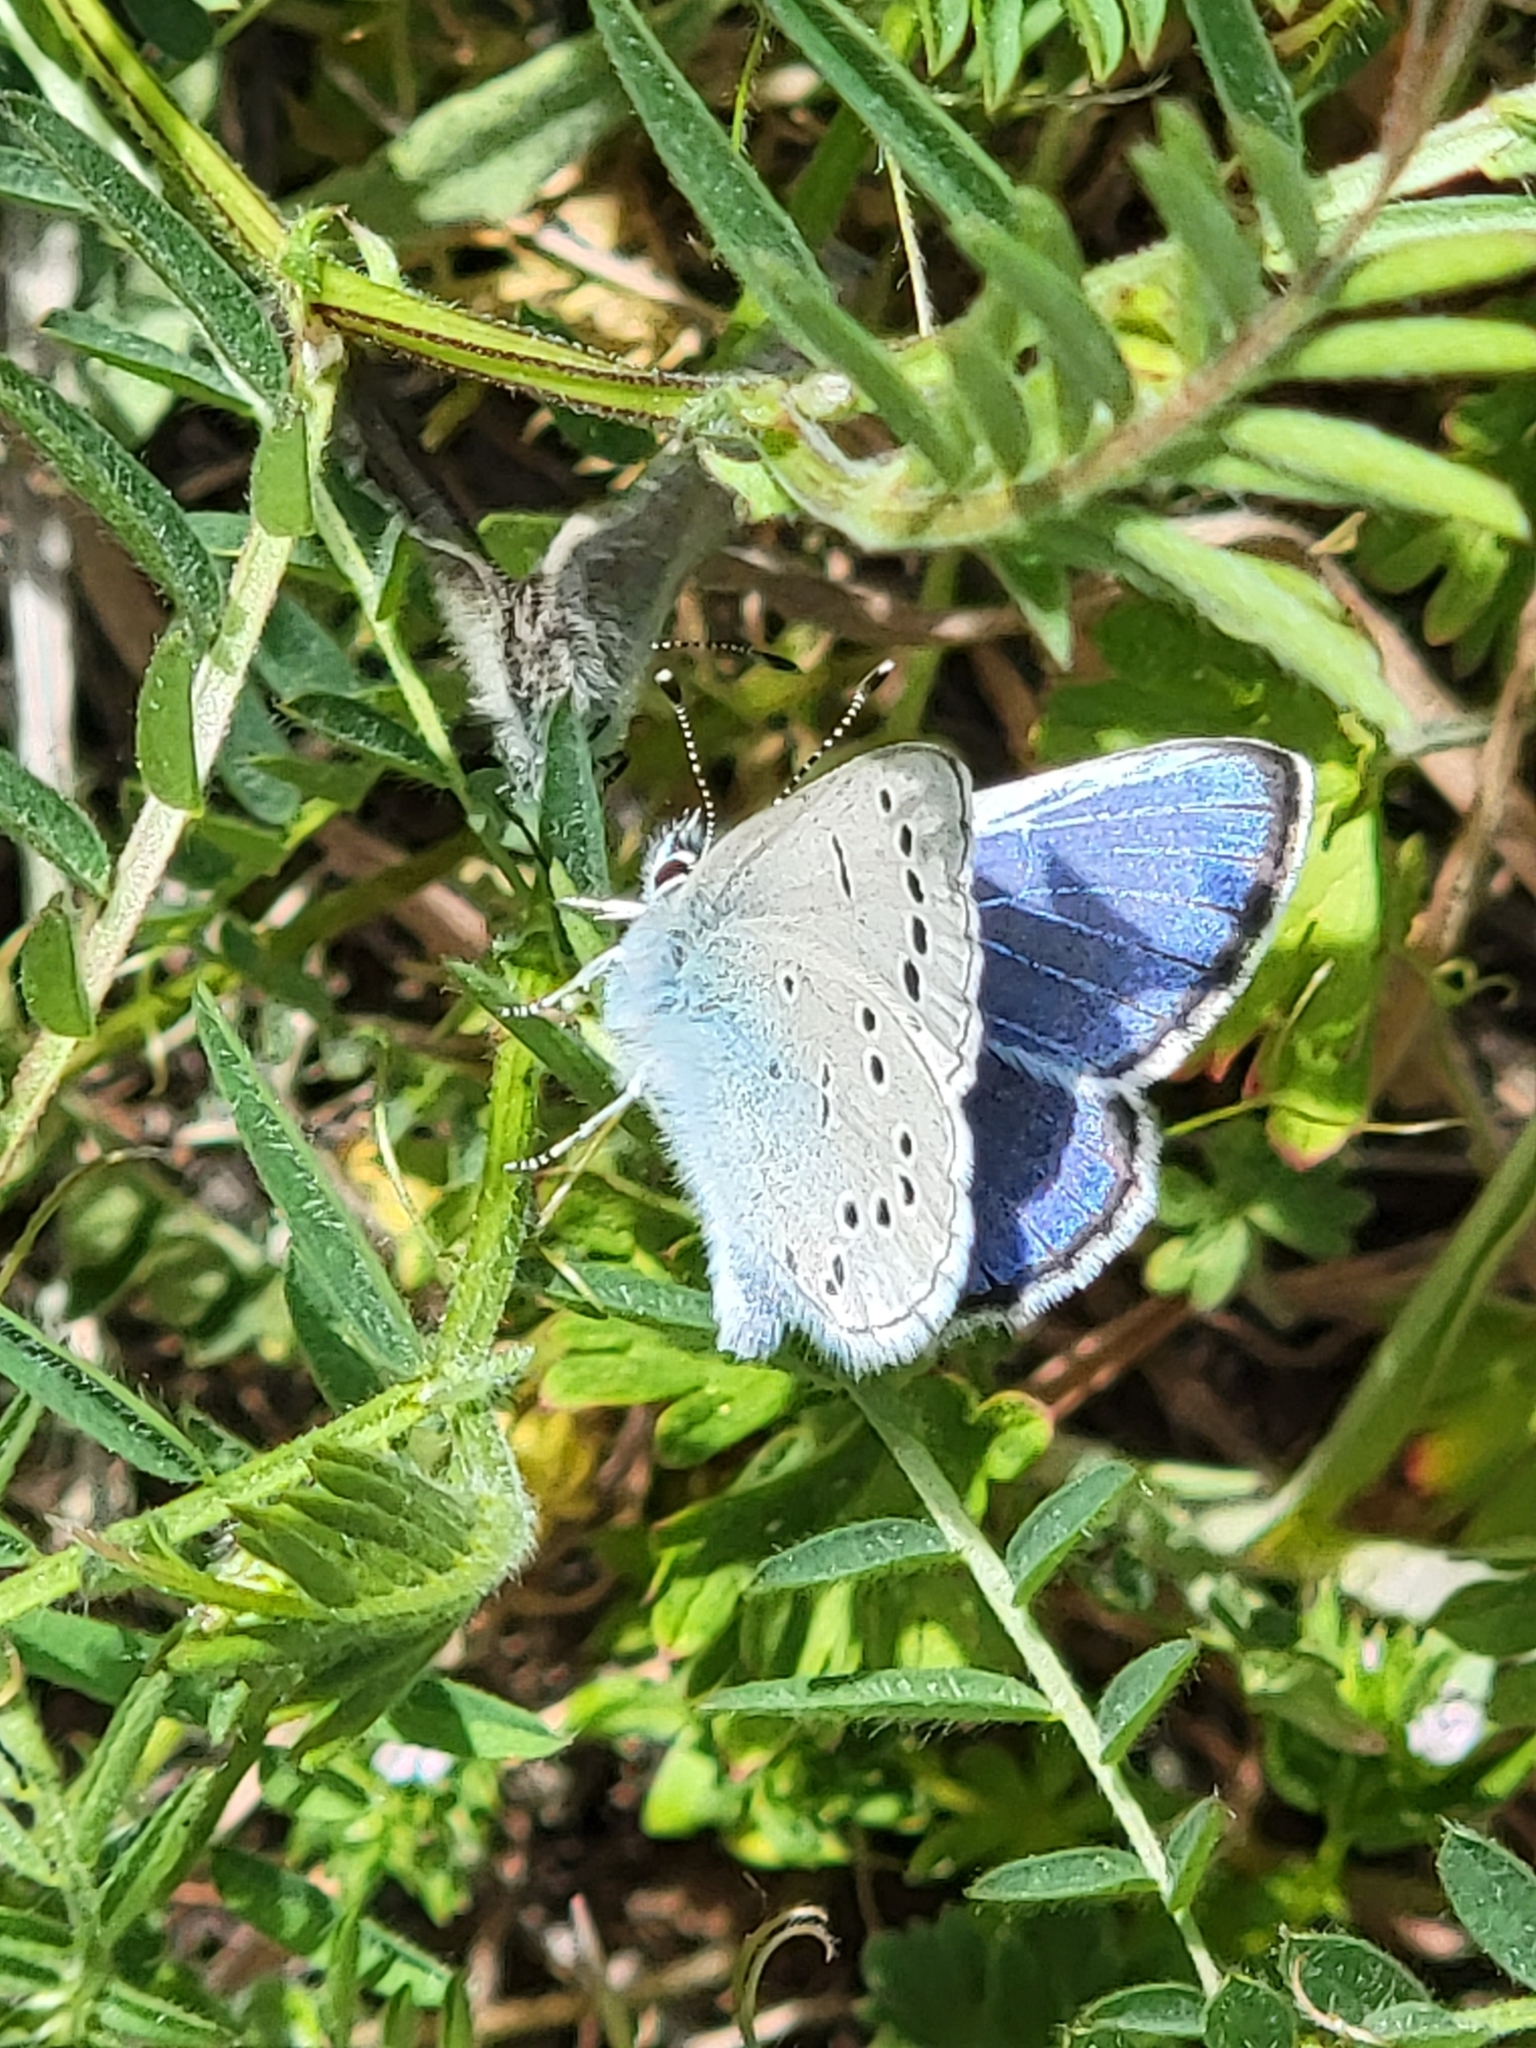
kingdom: Animalia
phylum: Arthropoda
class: Insecta
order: Lepidoptera
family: Lycaenidae
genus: Glaucopsyche
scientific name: Glaucopsyche lygdamus
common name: Silvery blue
